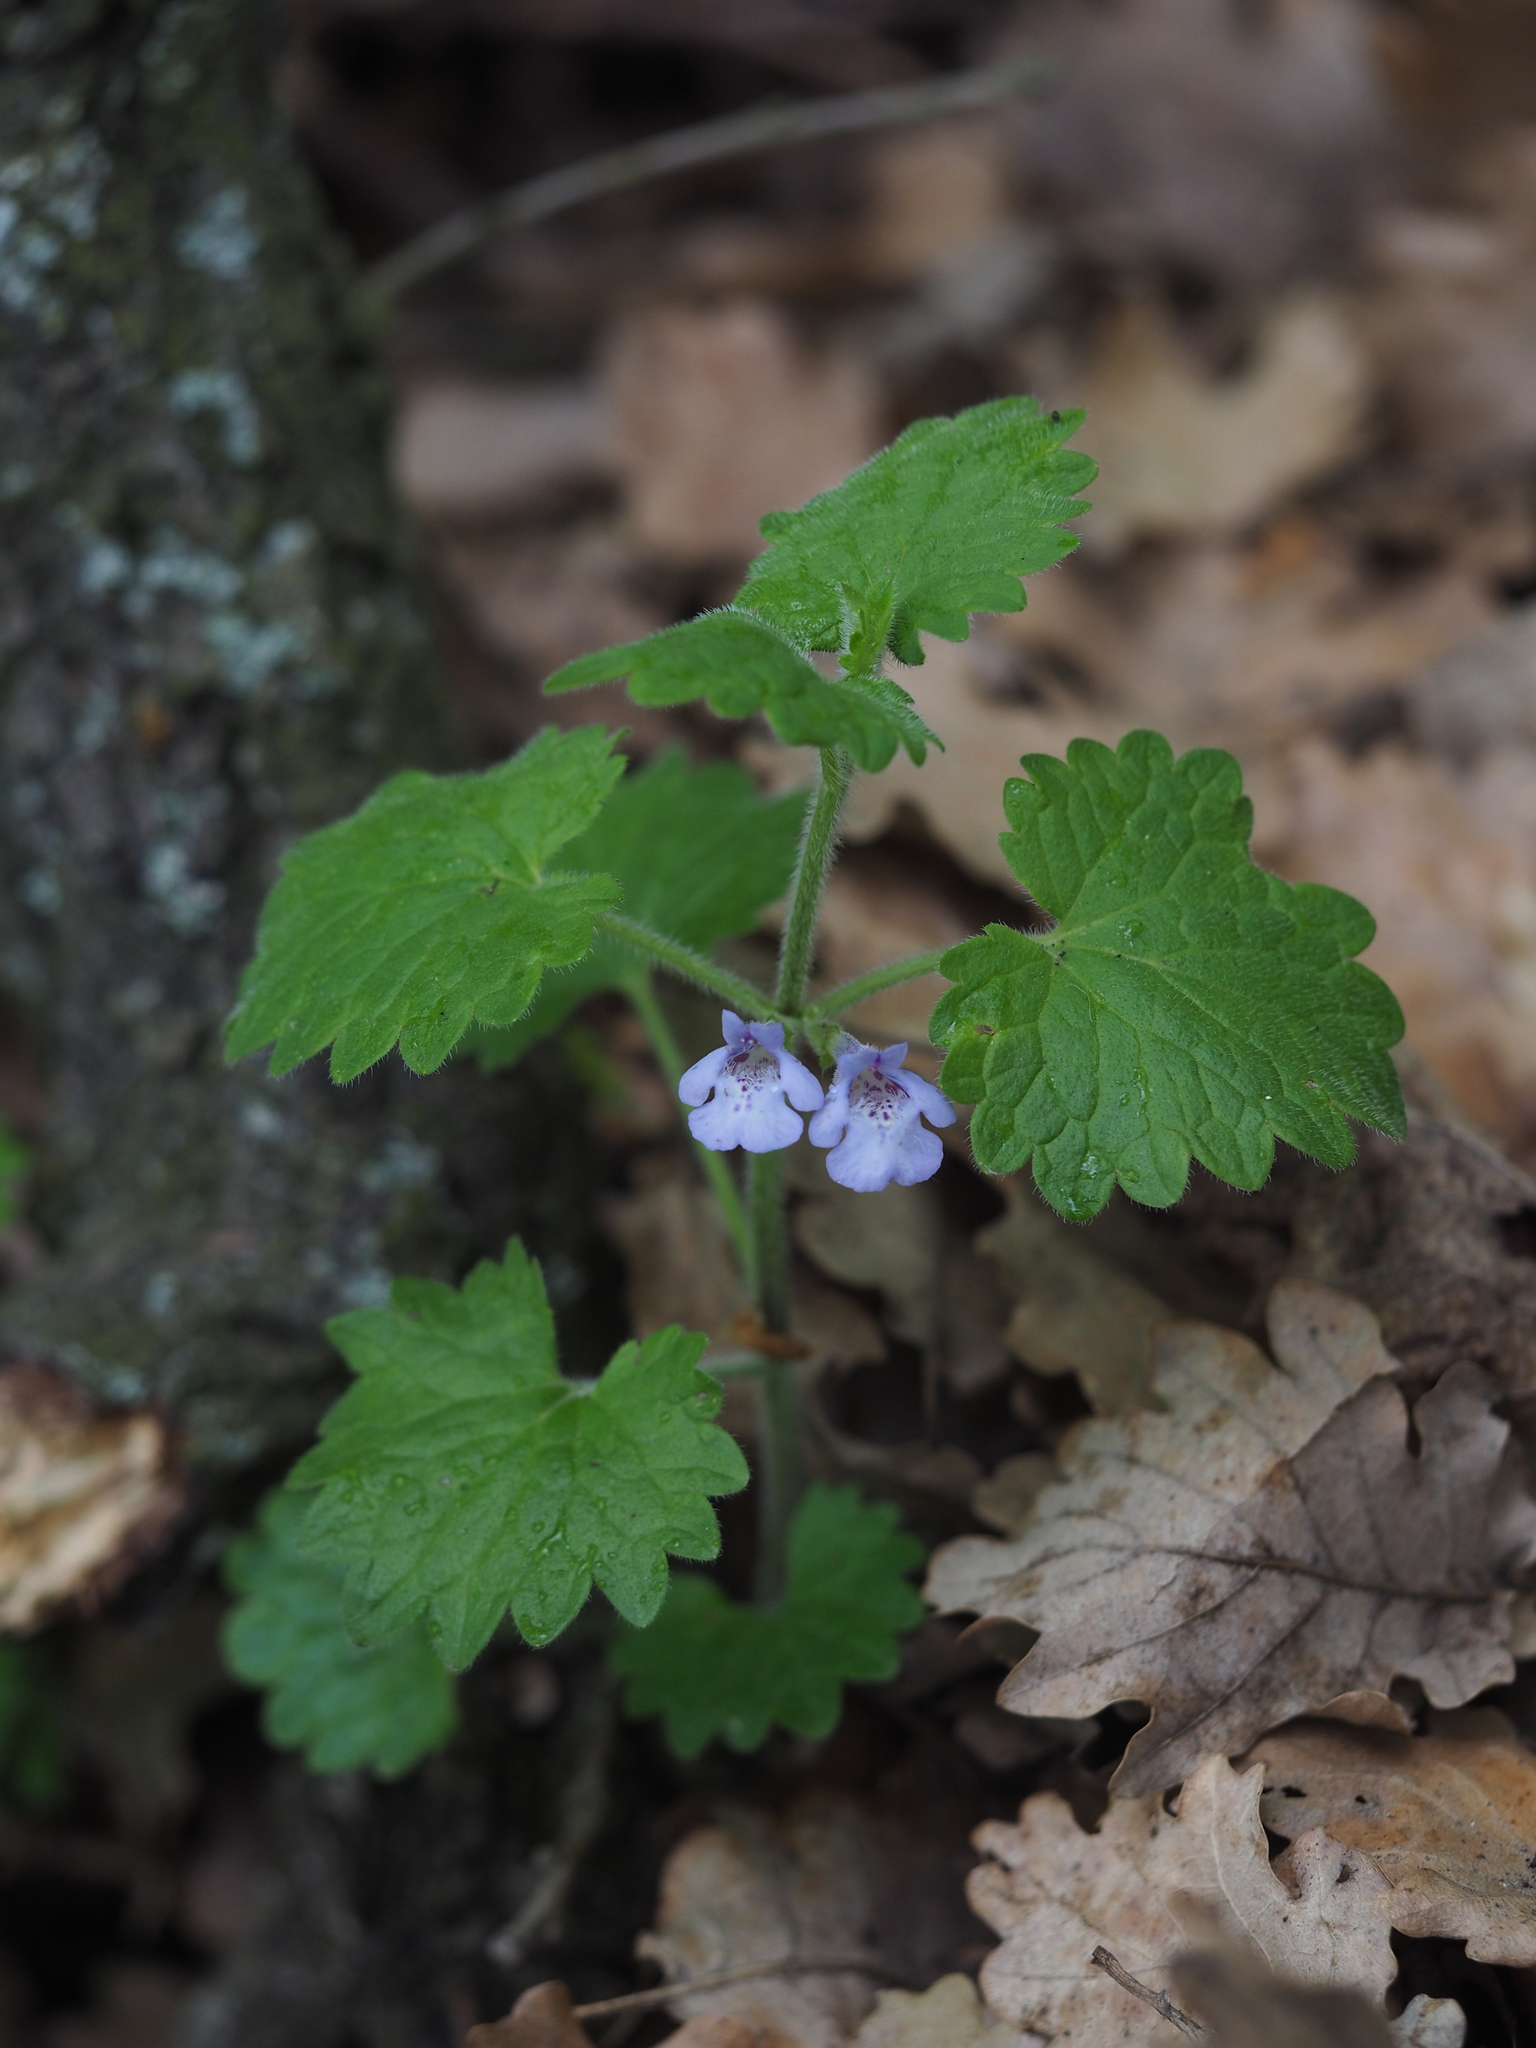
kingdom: Plantae
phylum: Tracheophyta
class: Magnoliopsida
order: Lamiales
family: Lamiaceae
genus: Glechoma
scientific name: Glechoma hirsuta
